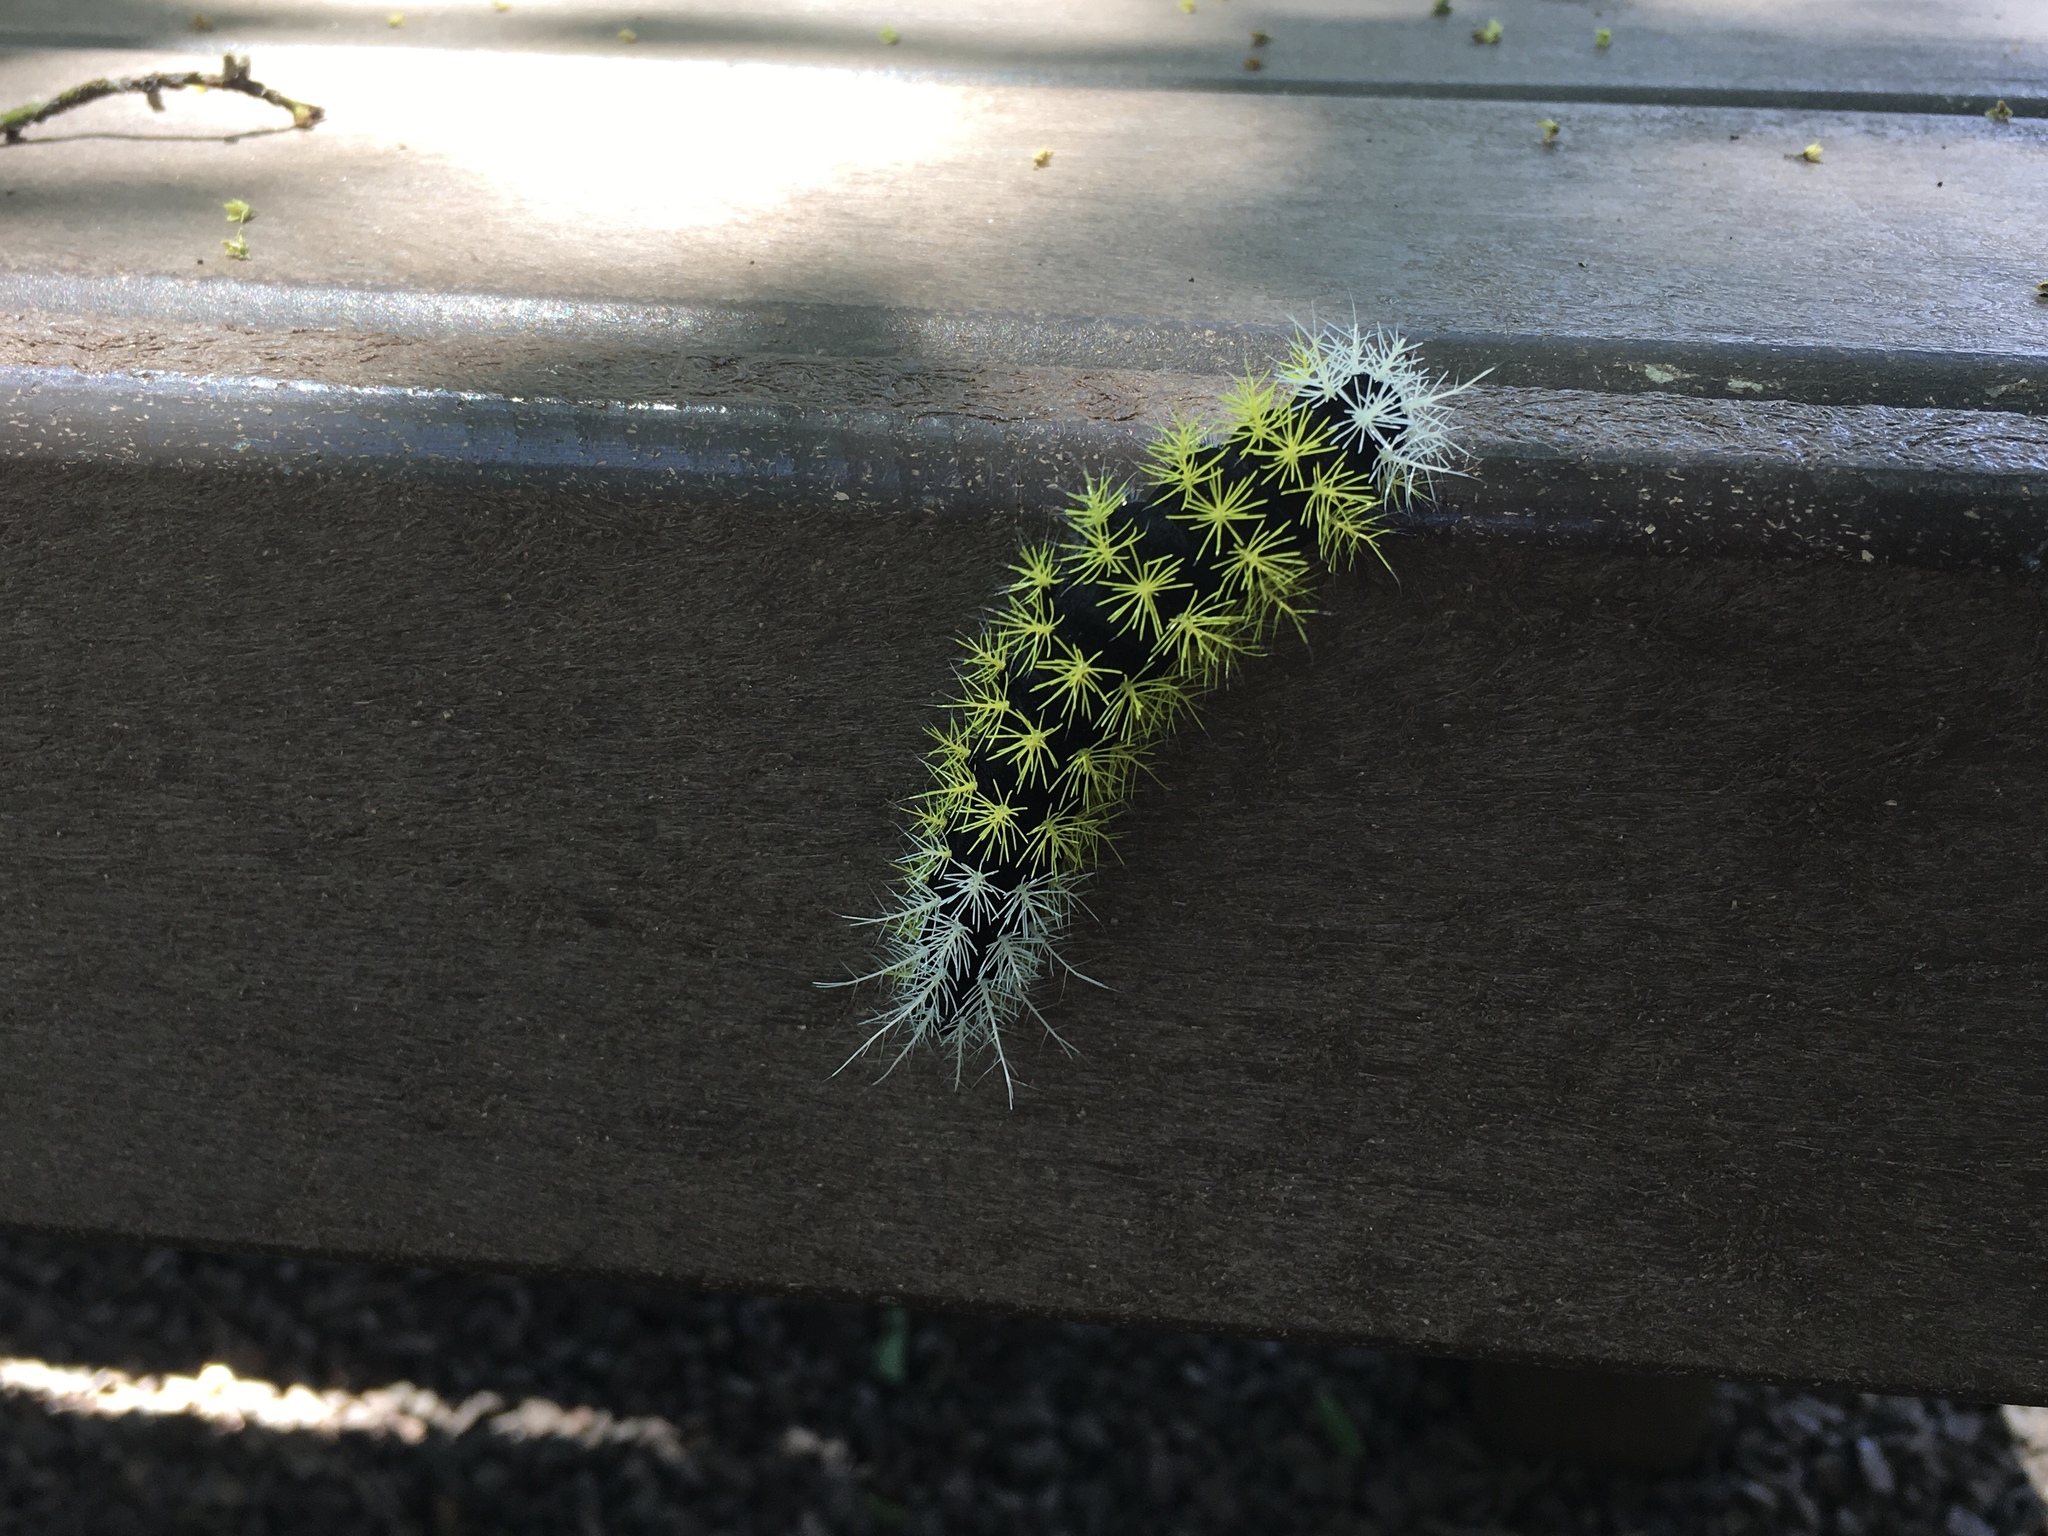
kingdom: Animalia
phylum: Arthropoda
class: Insecta
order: Lepidoptera
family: Saturniidae
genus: Leucanella
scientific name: Leucanella memusae
